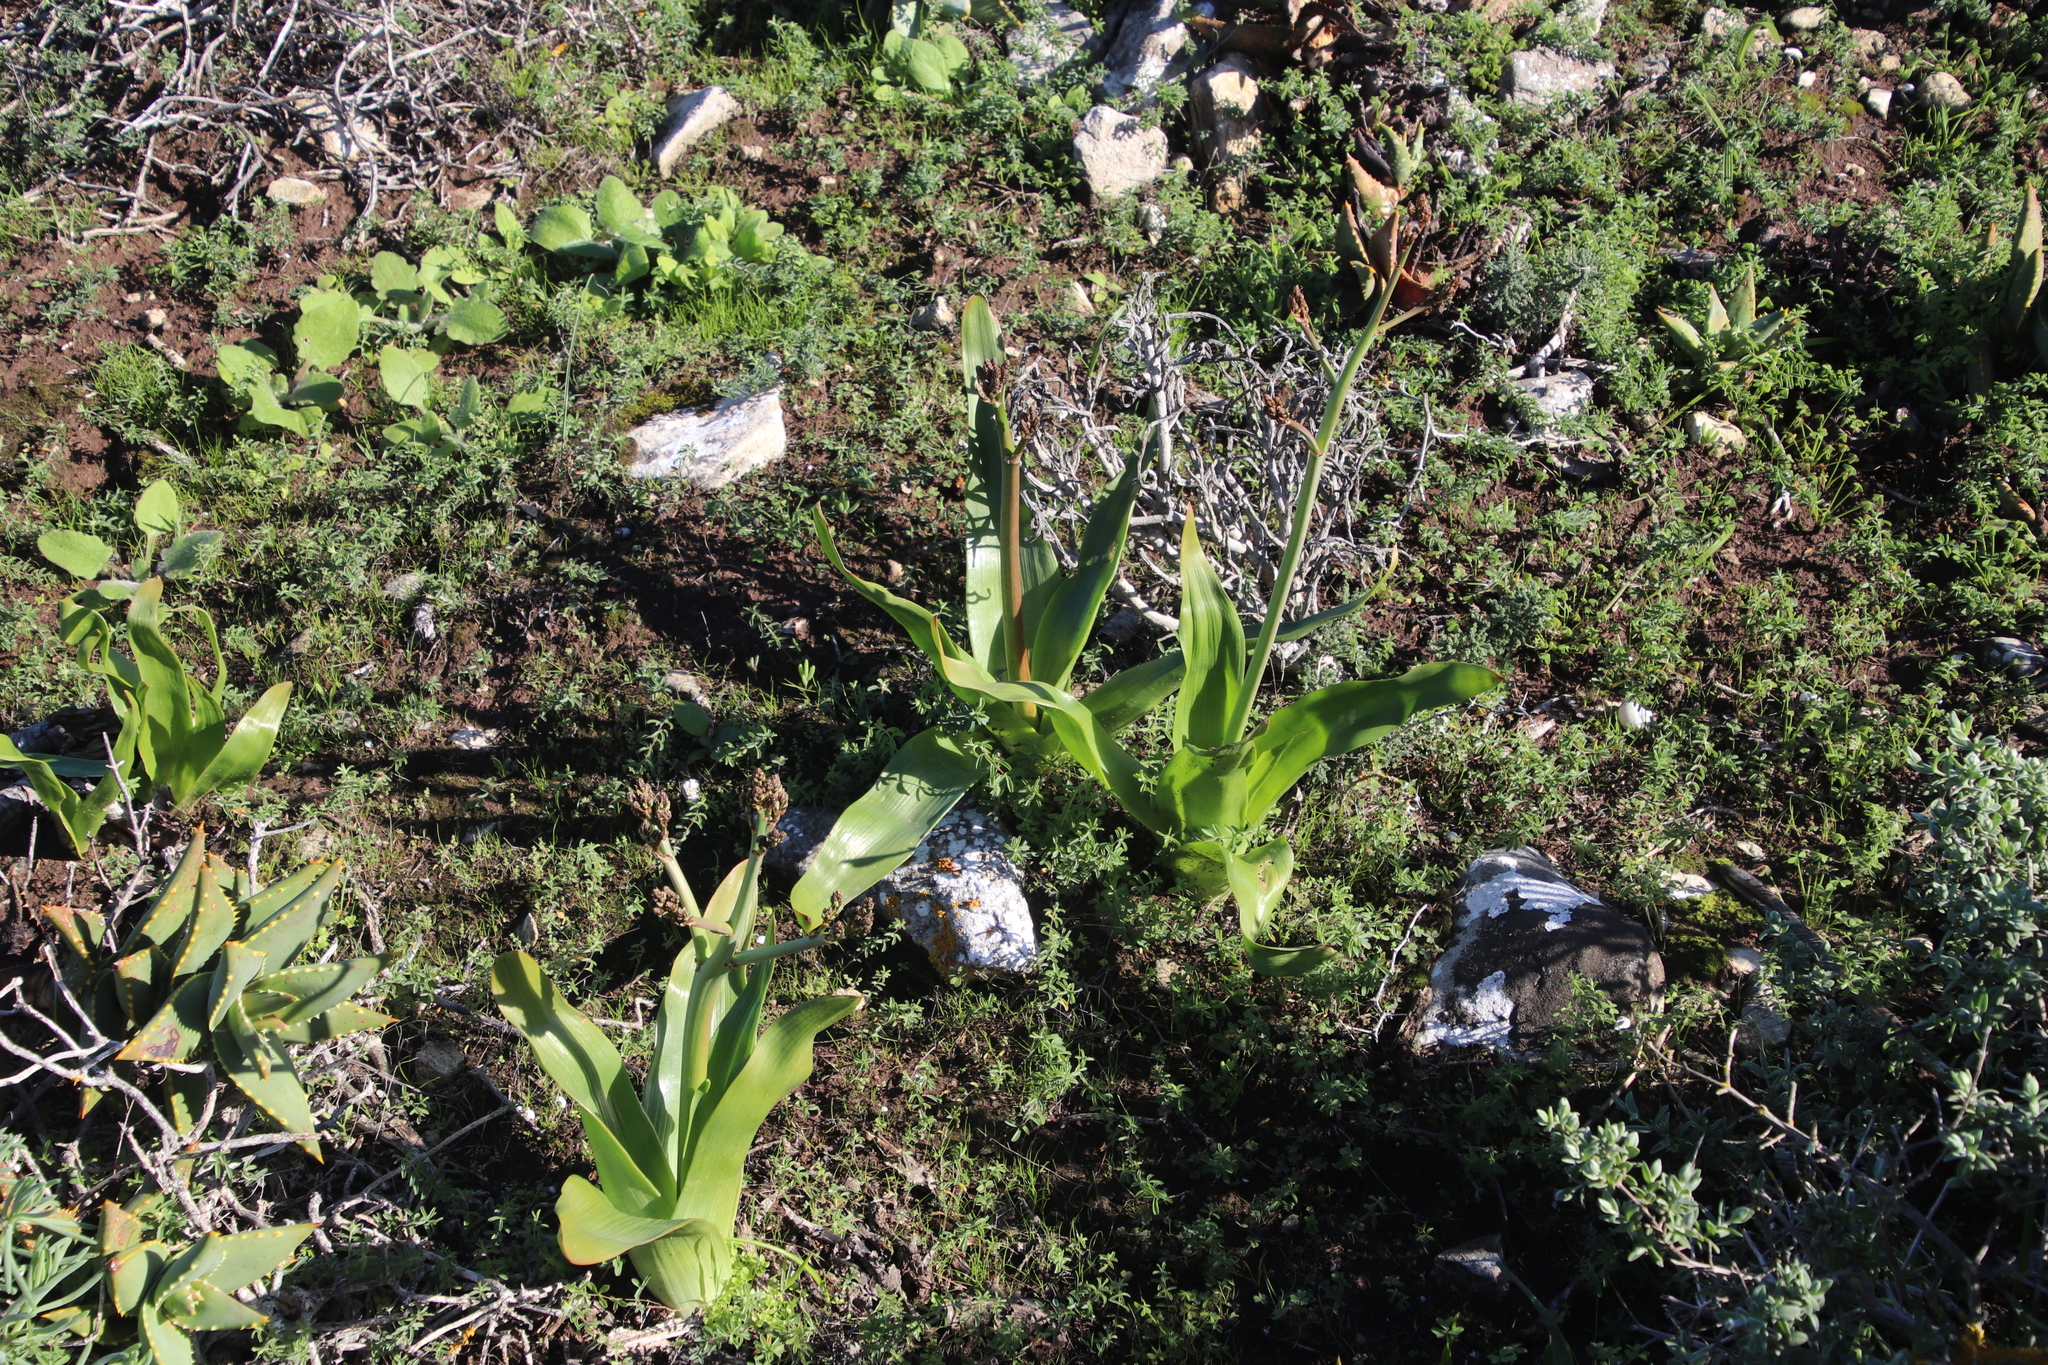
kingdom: Plantae
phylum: Tracheophyta
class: Liliopsida
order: Asparagales
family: Asphodelaceae
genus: Trachyandra
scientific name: Trachyandra muricata
